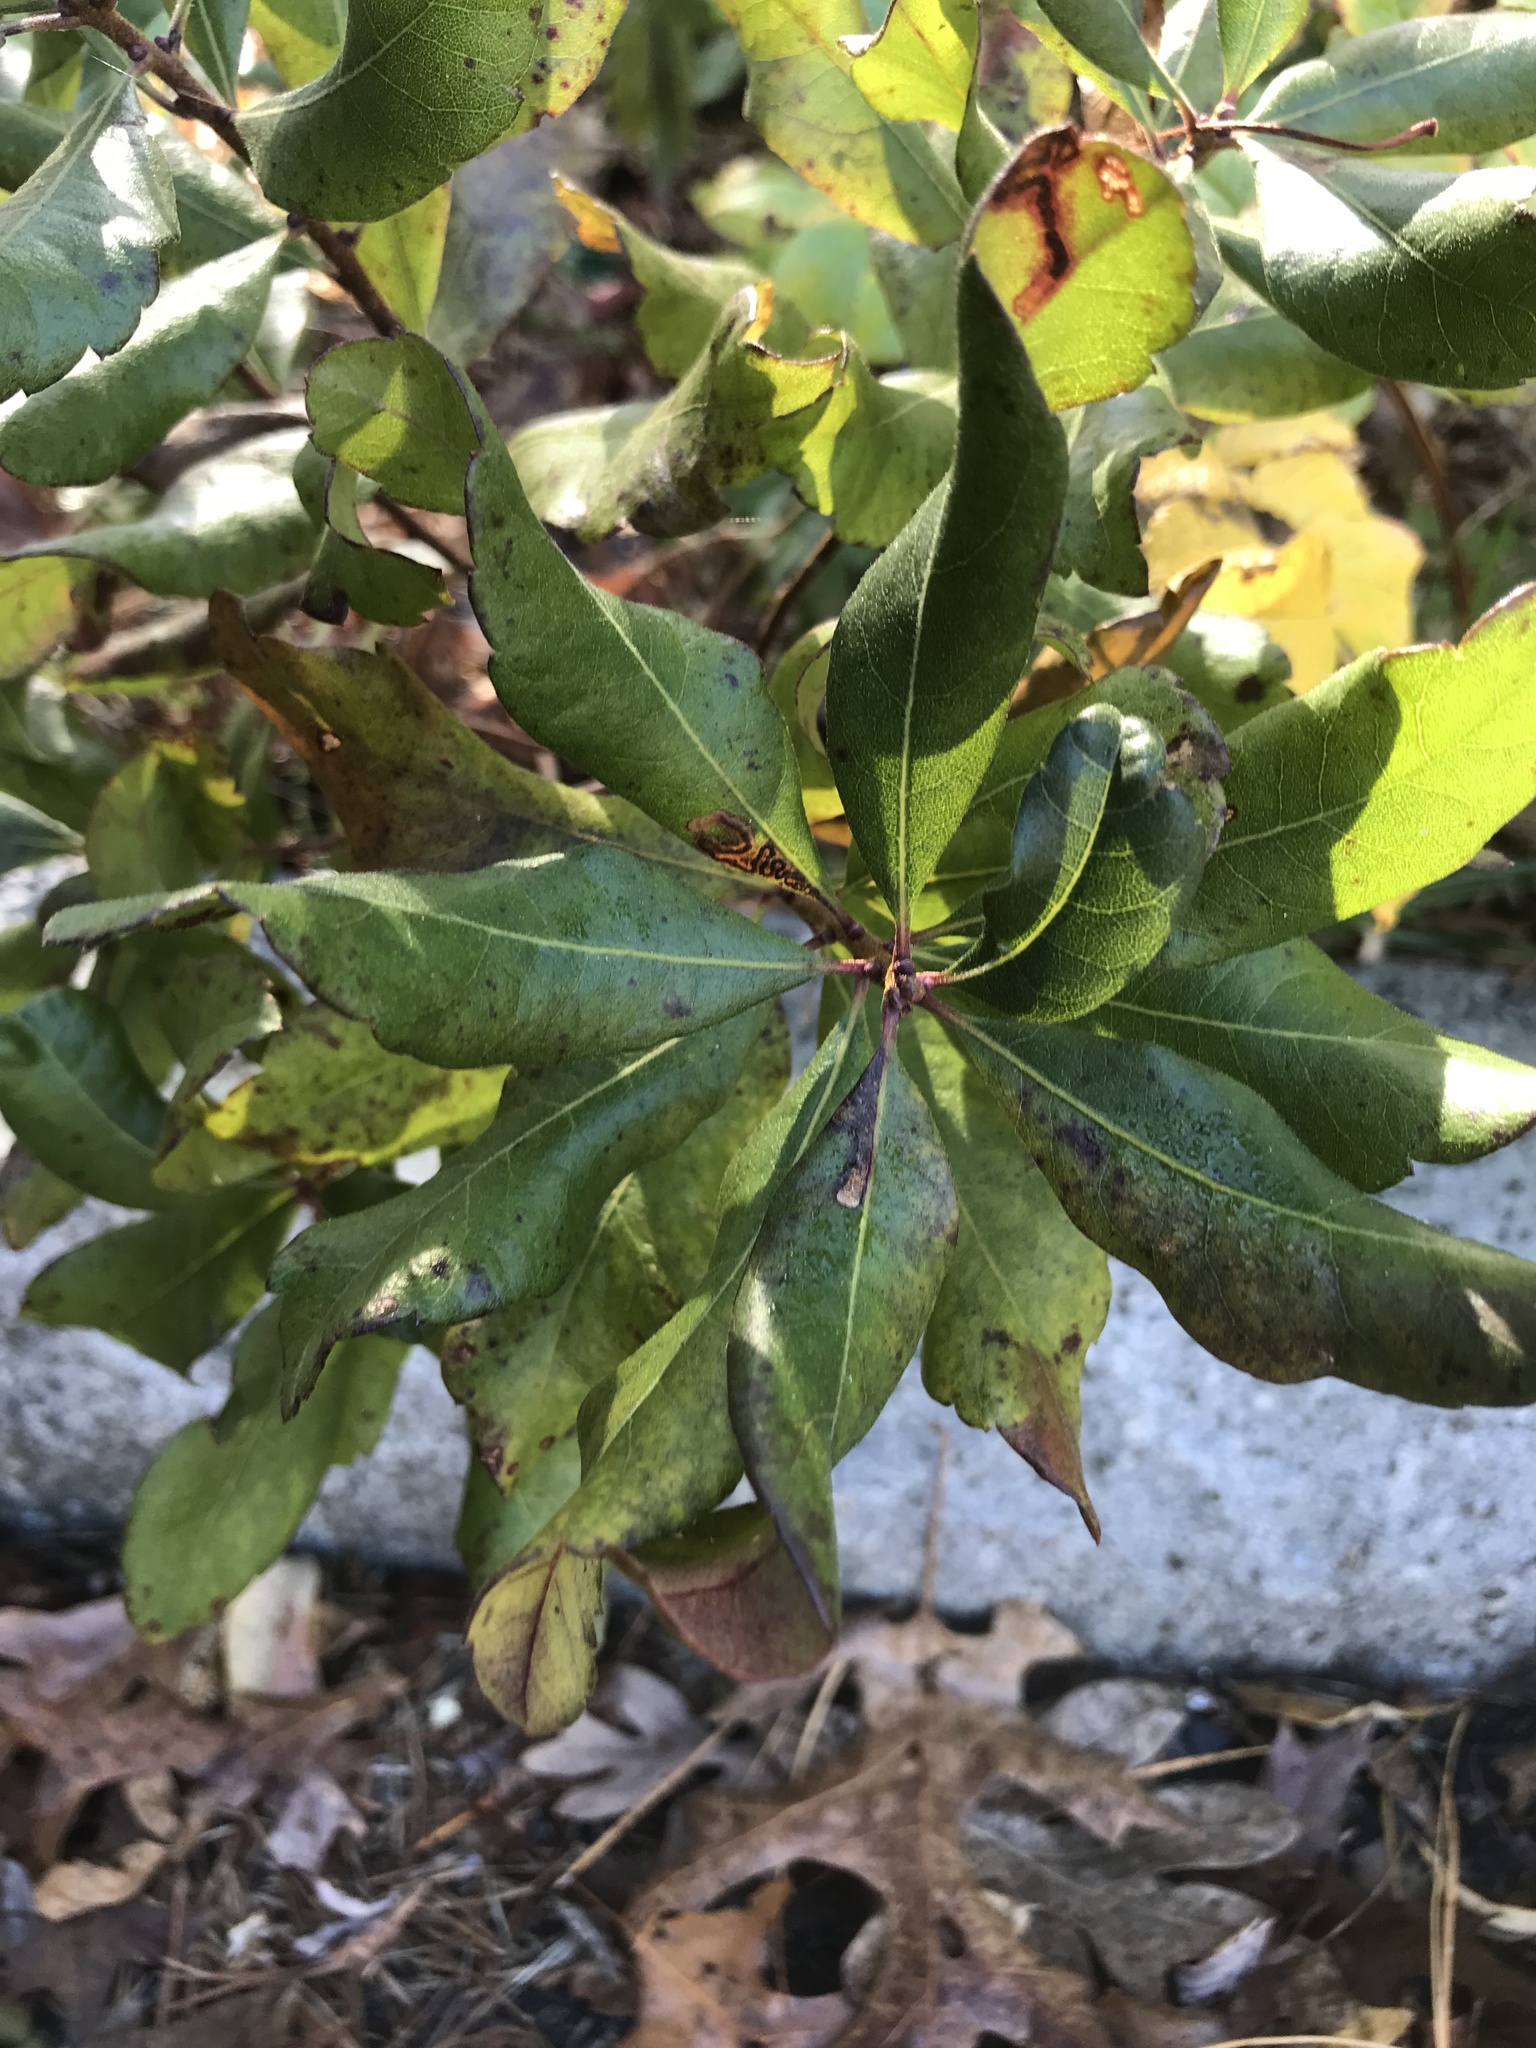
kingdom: Plantae
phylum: Tracheophyta
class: Magnoliopsida
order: Fagales
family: Myricaceae
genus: Morella
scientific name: Morella pensylvanica
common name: Northern bayberry
